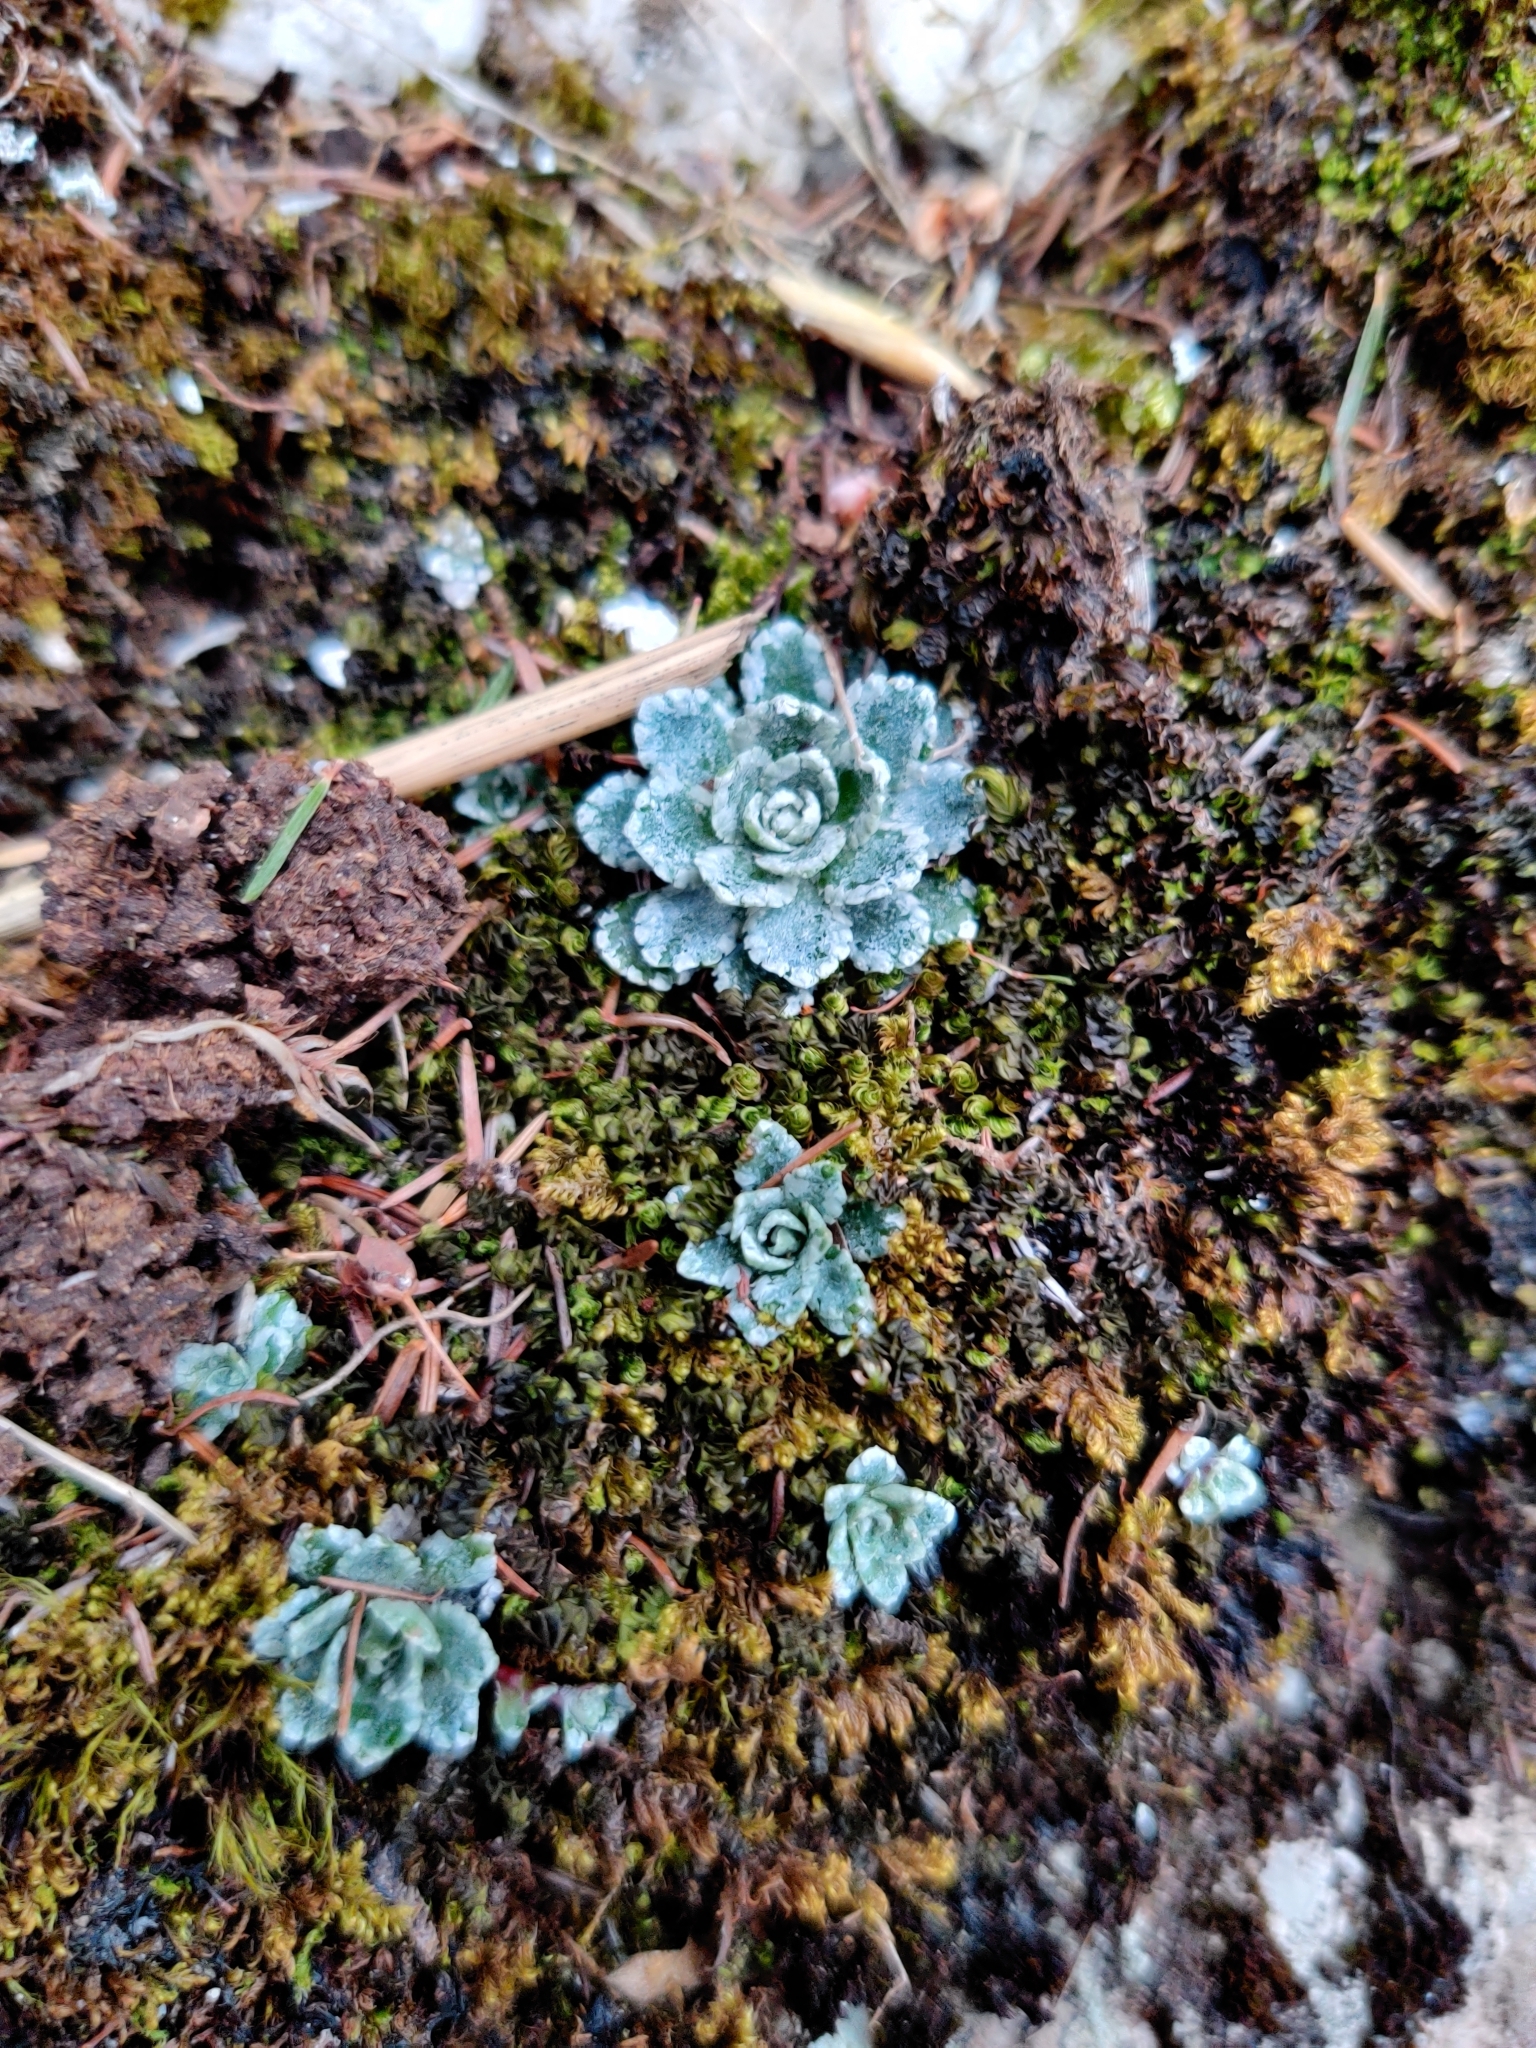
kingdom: Plantae
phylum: Tracheophyta
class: Magnoliopsida
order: Saxifragales
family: Saxifragaceae
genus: Saxifraga
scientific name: Saxifraga paniculata
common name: Livelong saxifrage
